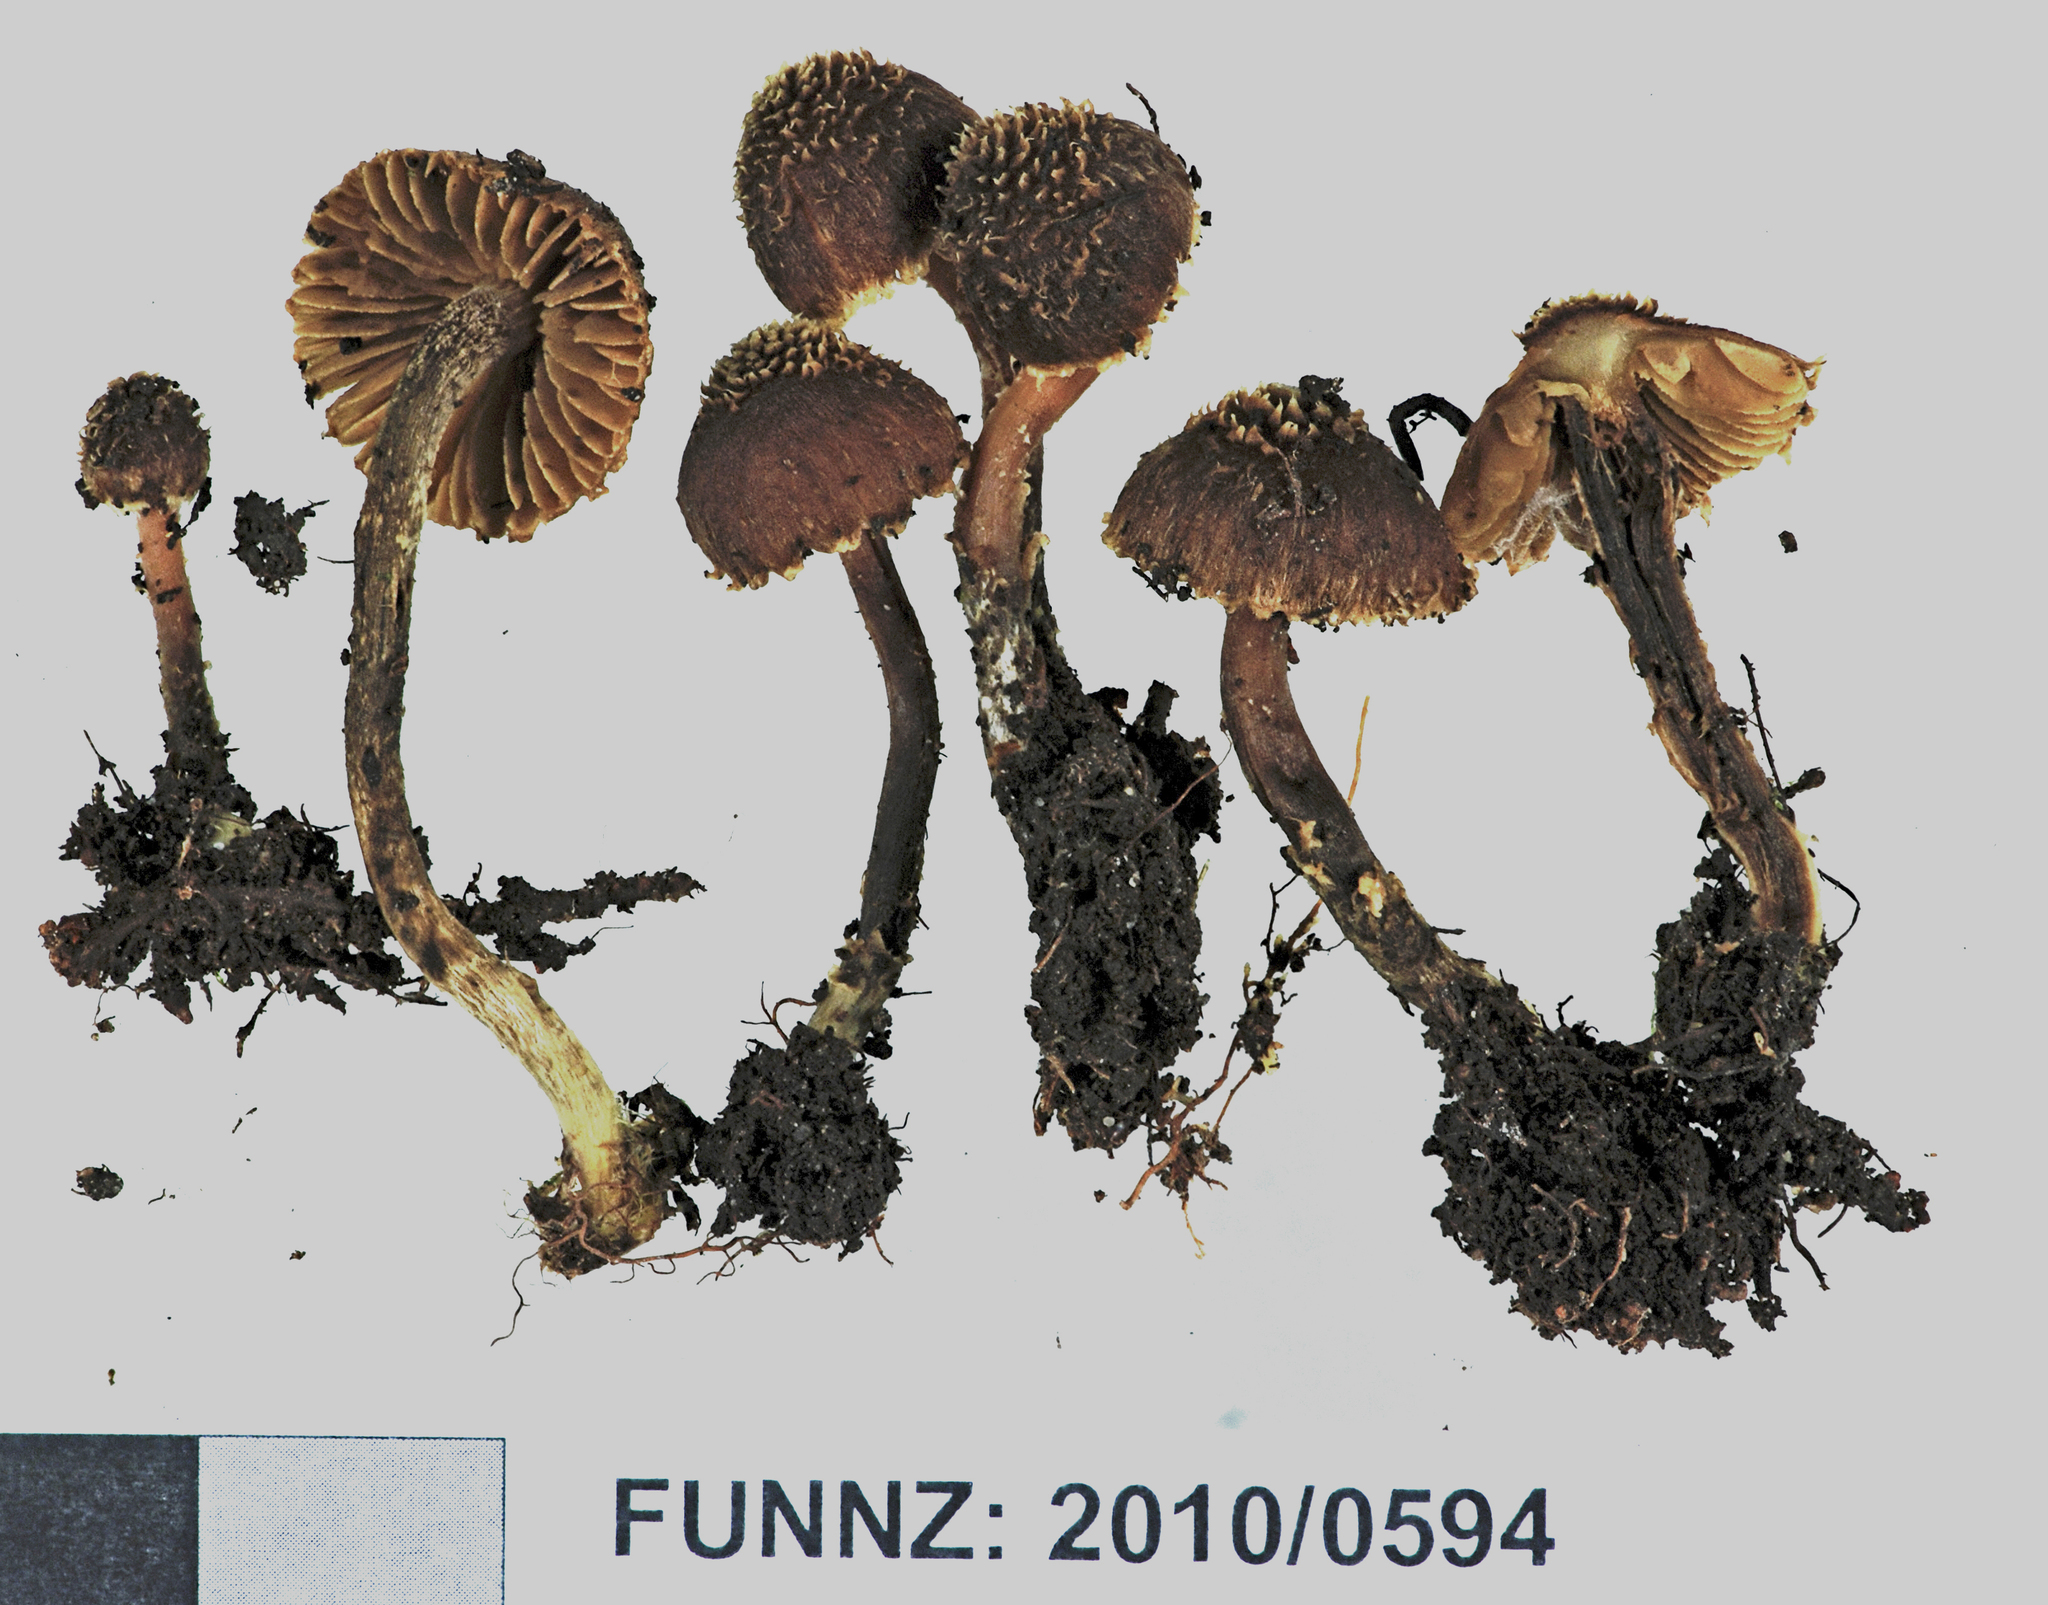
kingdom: Fungi
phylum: Basidiomycota
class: Agaricomycetes
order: Agaricales
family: Inocybaceae
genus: Inocybe
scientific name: Inocybe scobifera
